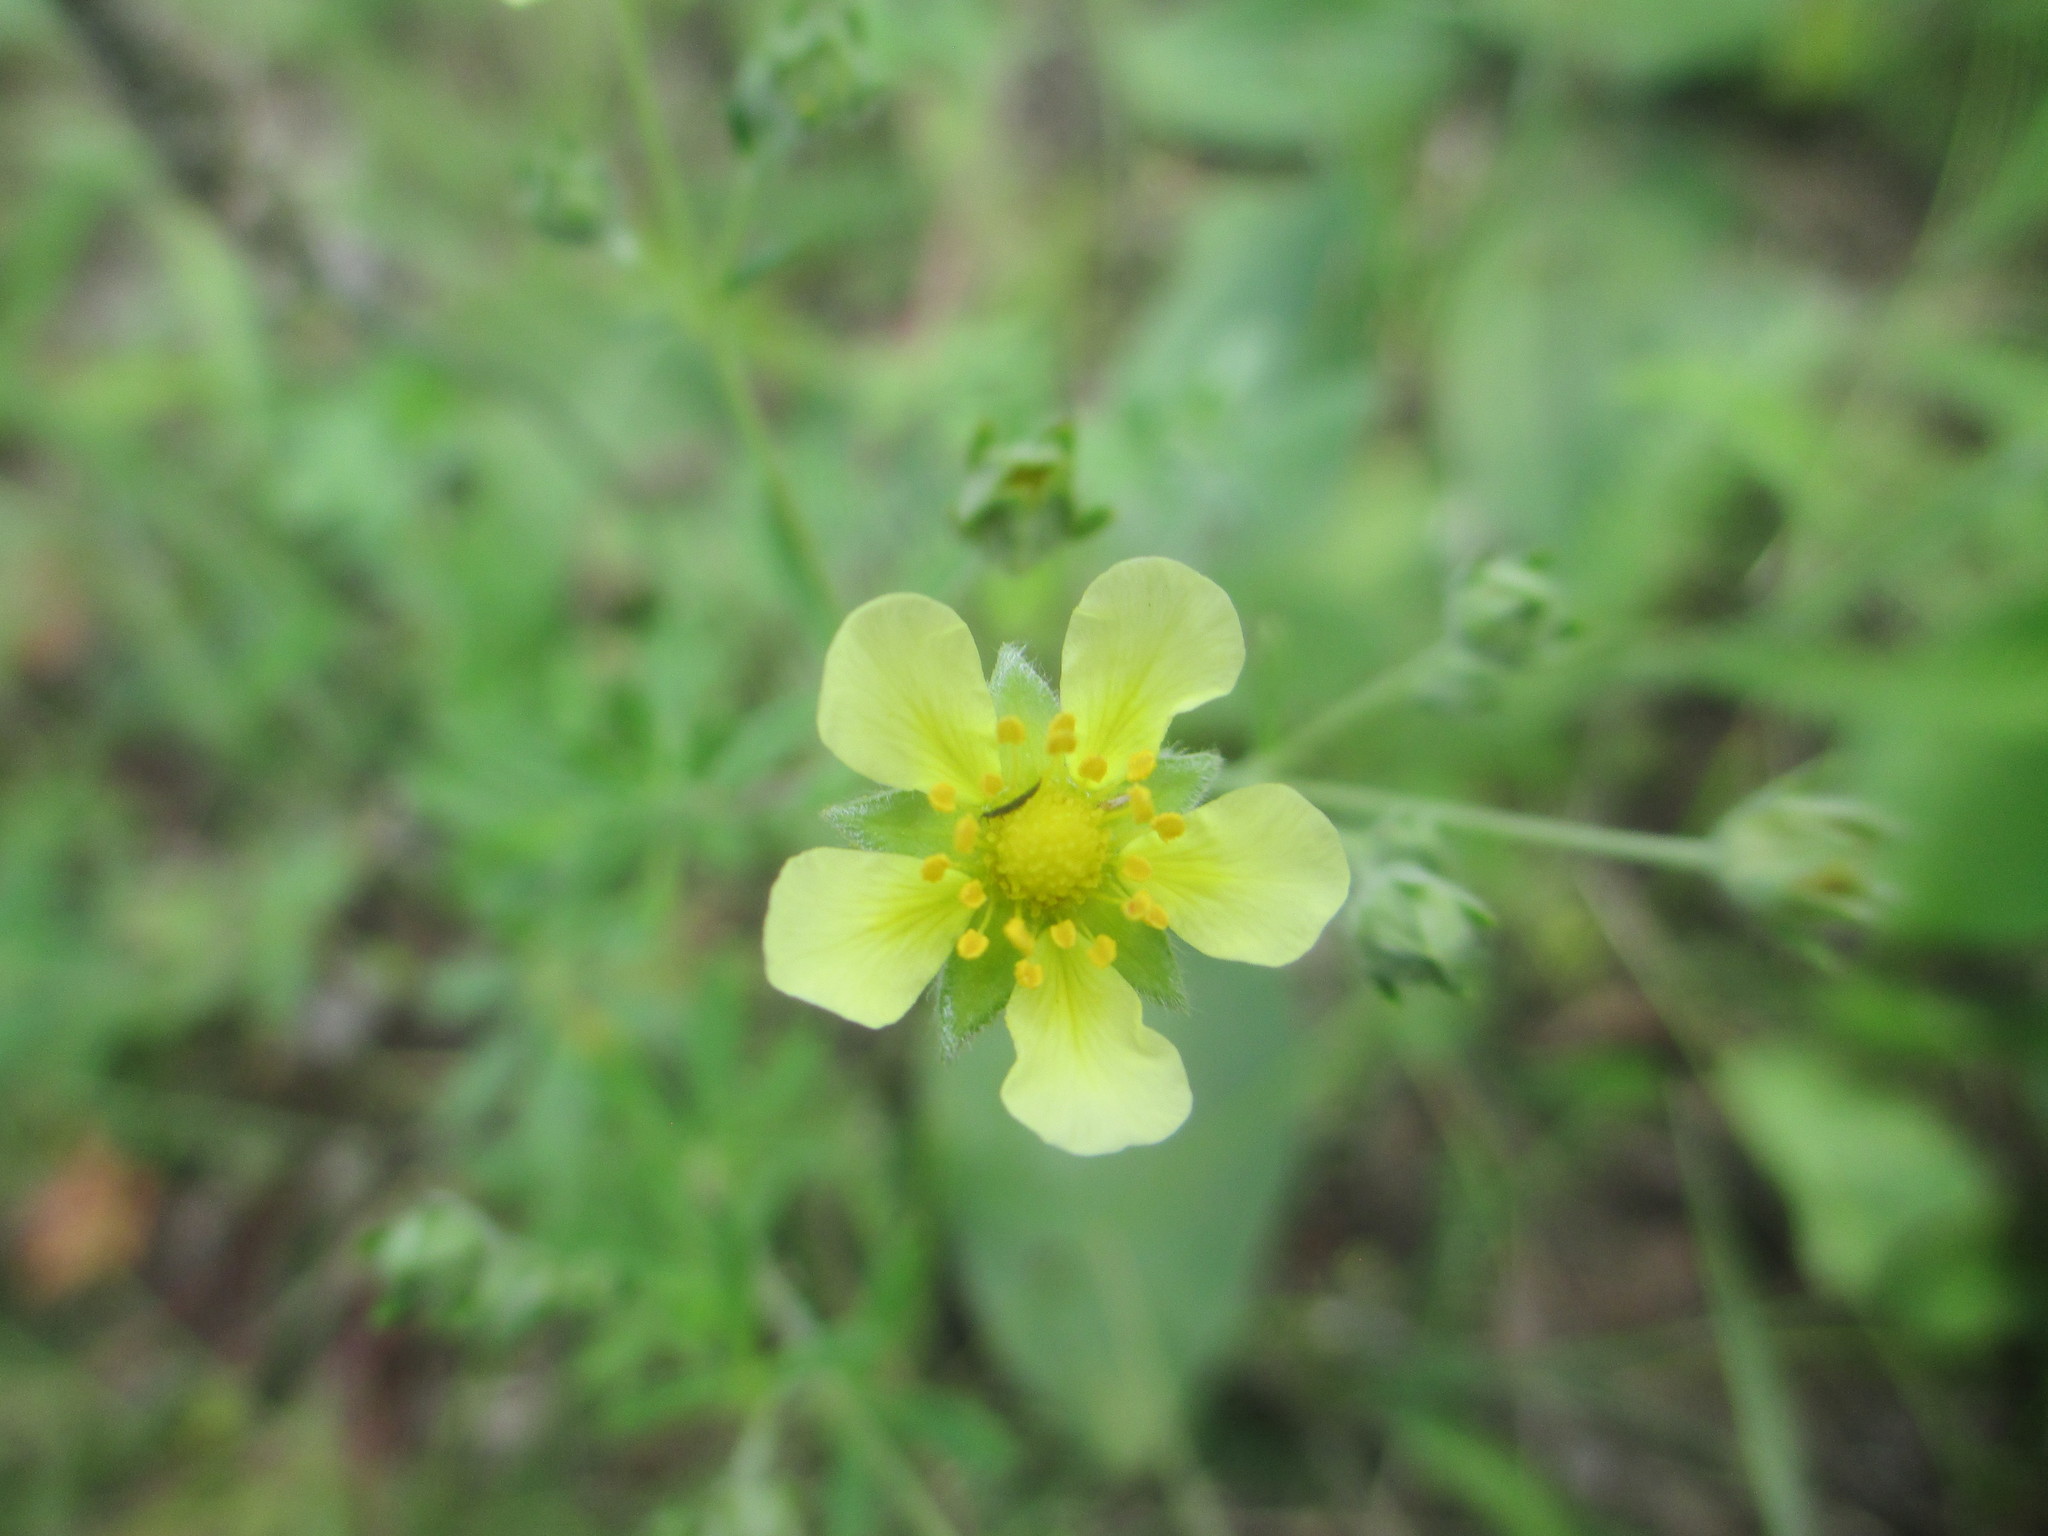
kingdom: Plantae
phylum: Tracheophyta
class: Magnoliopsida
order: Rosales
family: Rosaceae
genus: Potentilla
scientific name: Potentilla argentea
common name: Hoary cinquefoil
